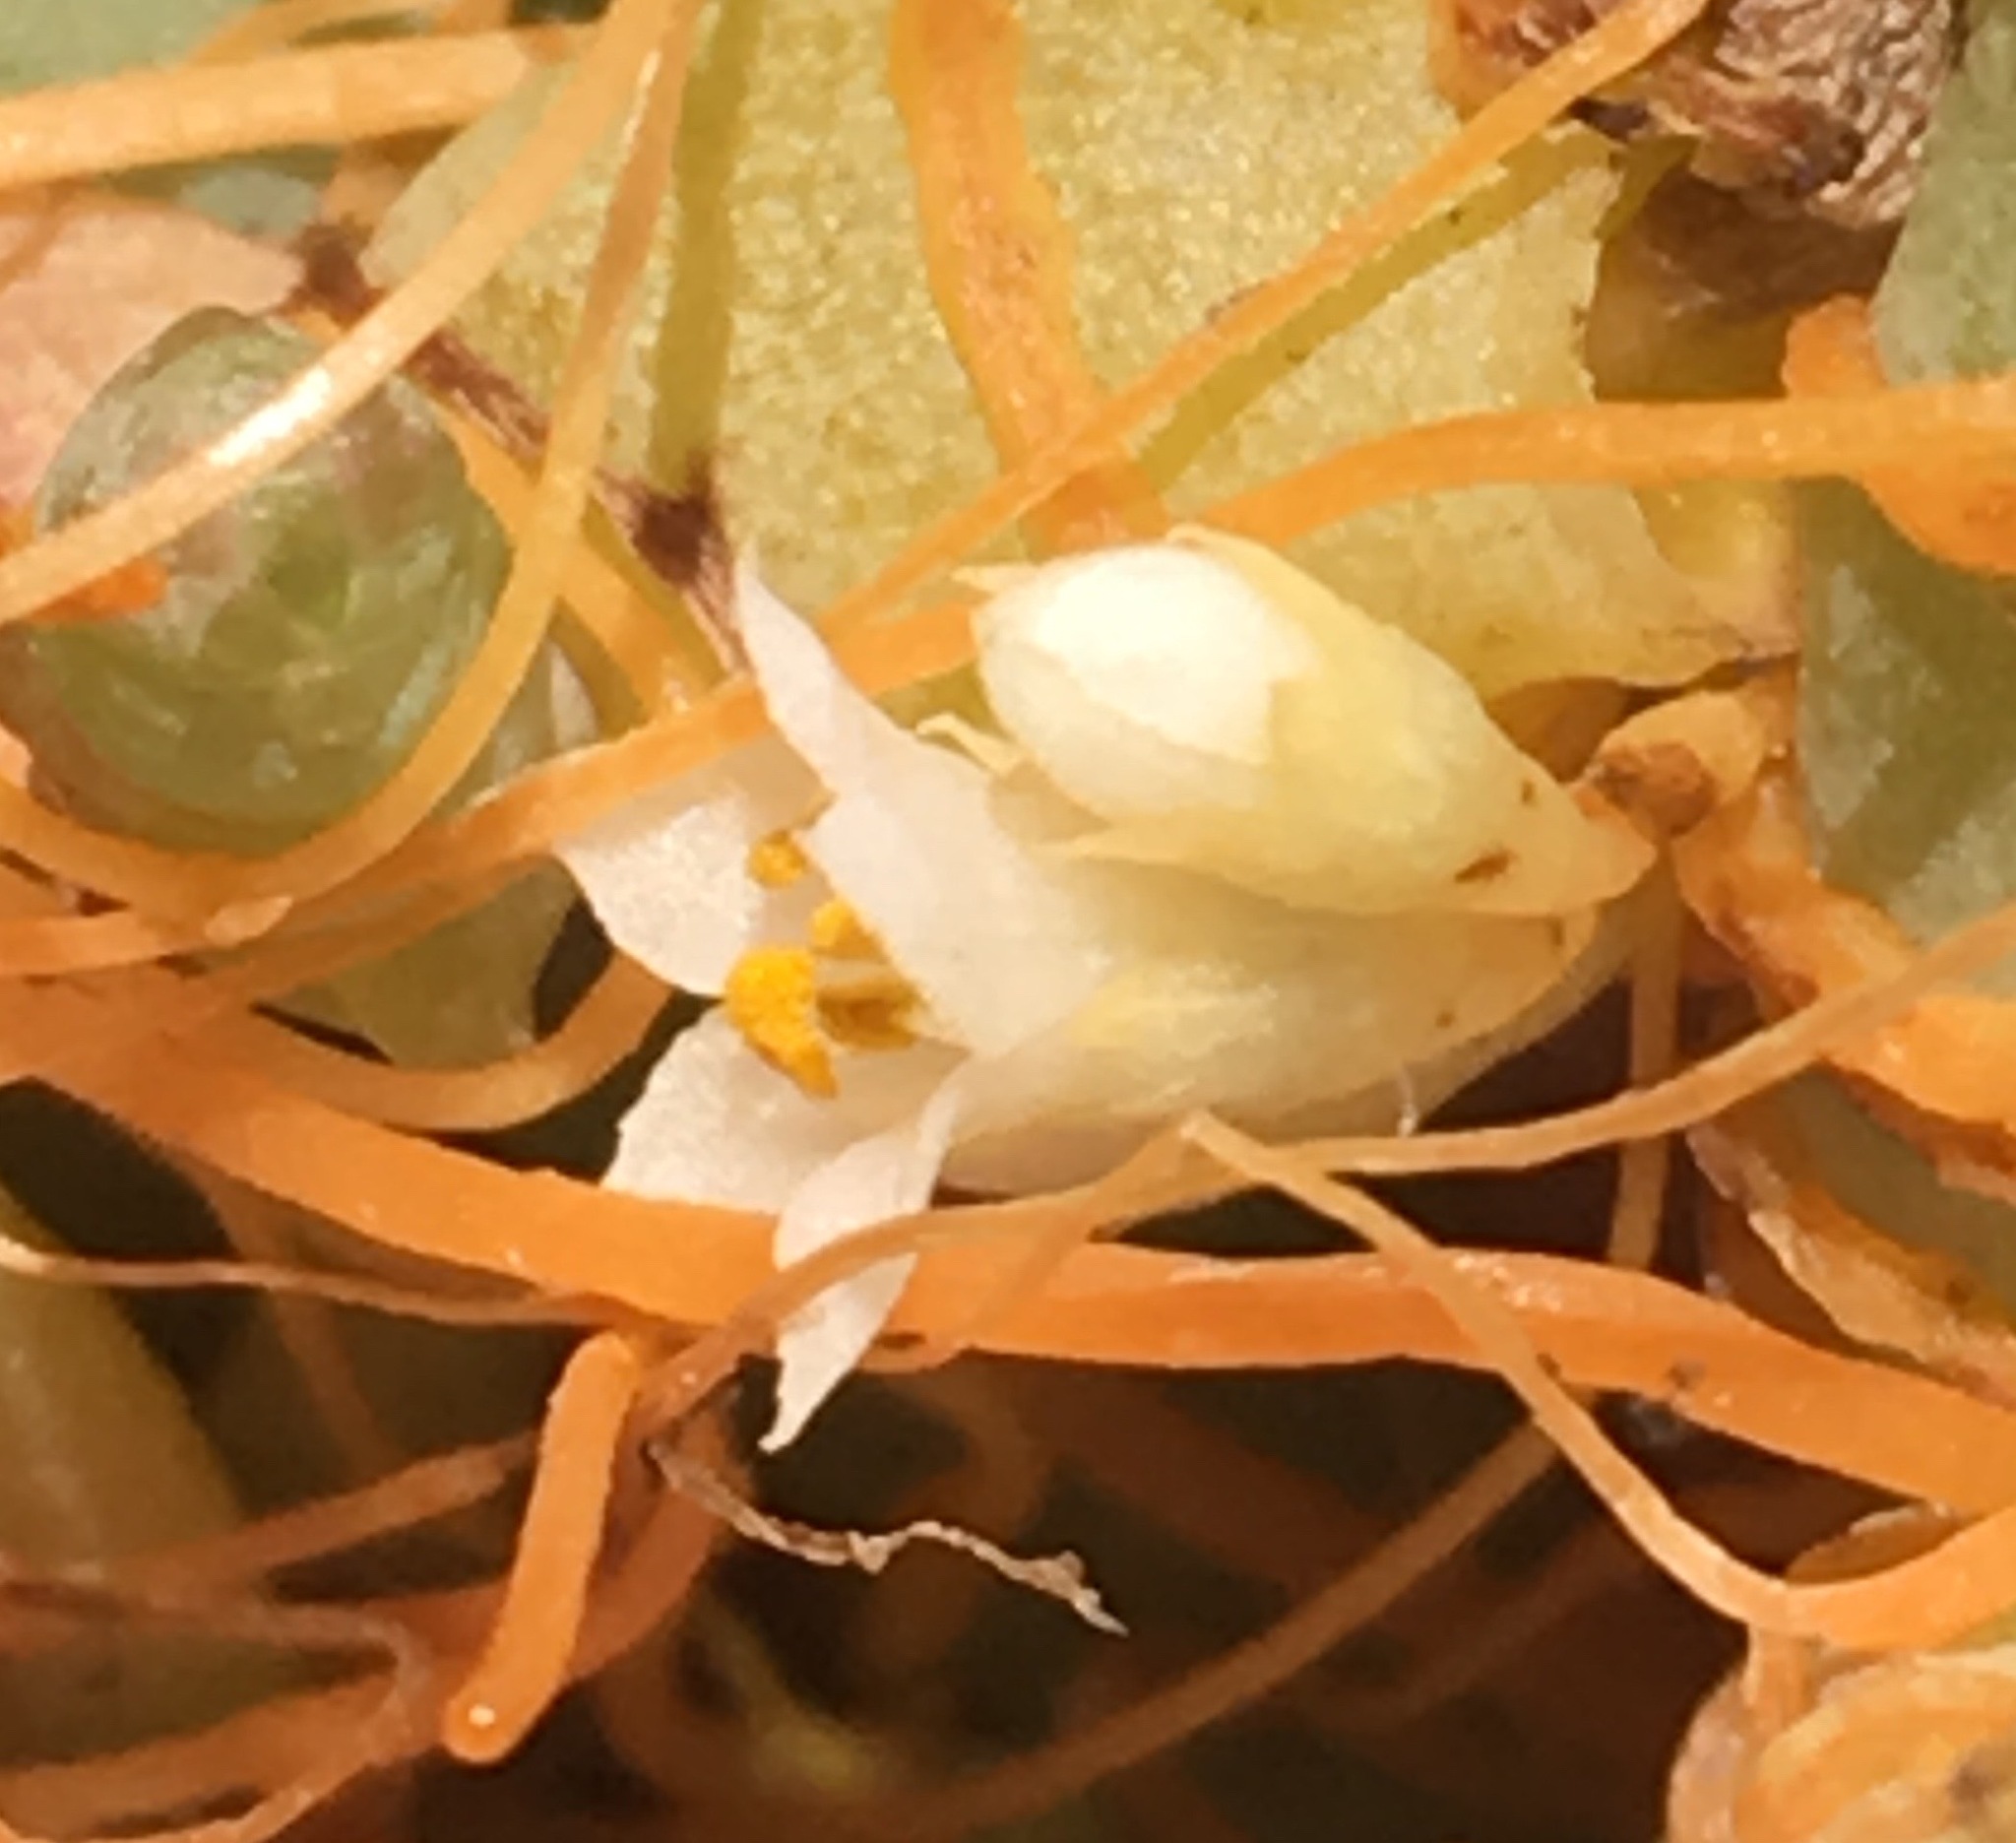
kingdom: Plantae
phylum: Tracheophyta
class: Magnoliopsida
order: Solanales
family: Convolvulaceae
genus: Cuscuta
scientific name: Cuscuta pacifica
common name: Large saltmarsh dodder
